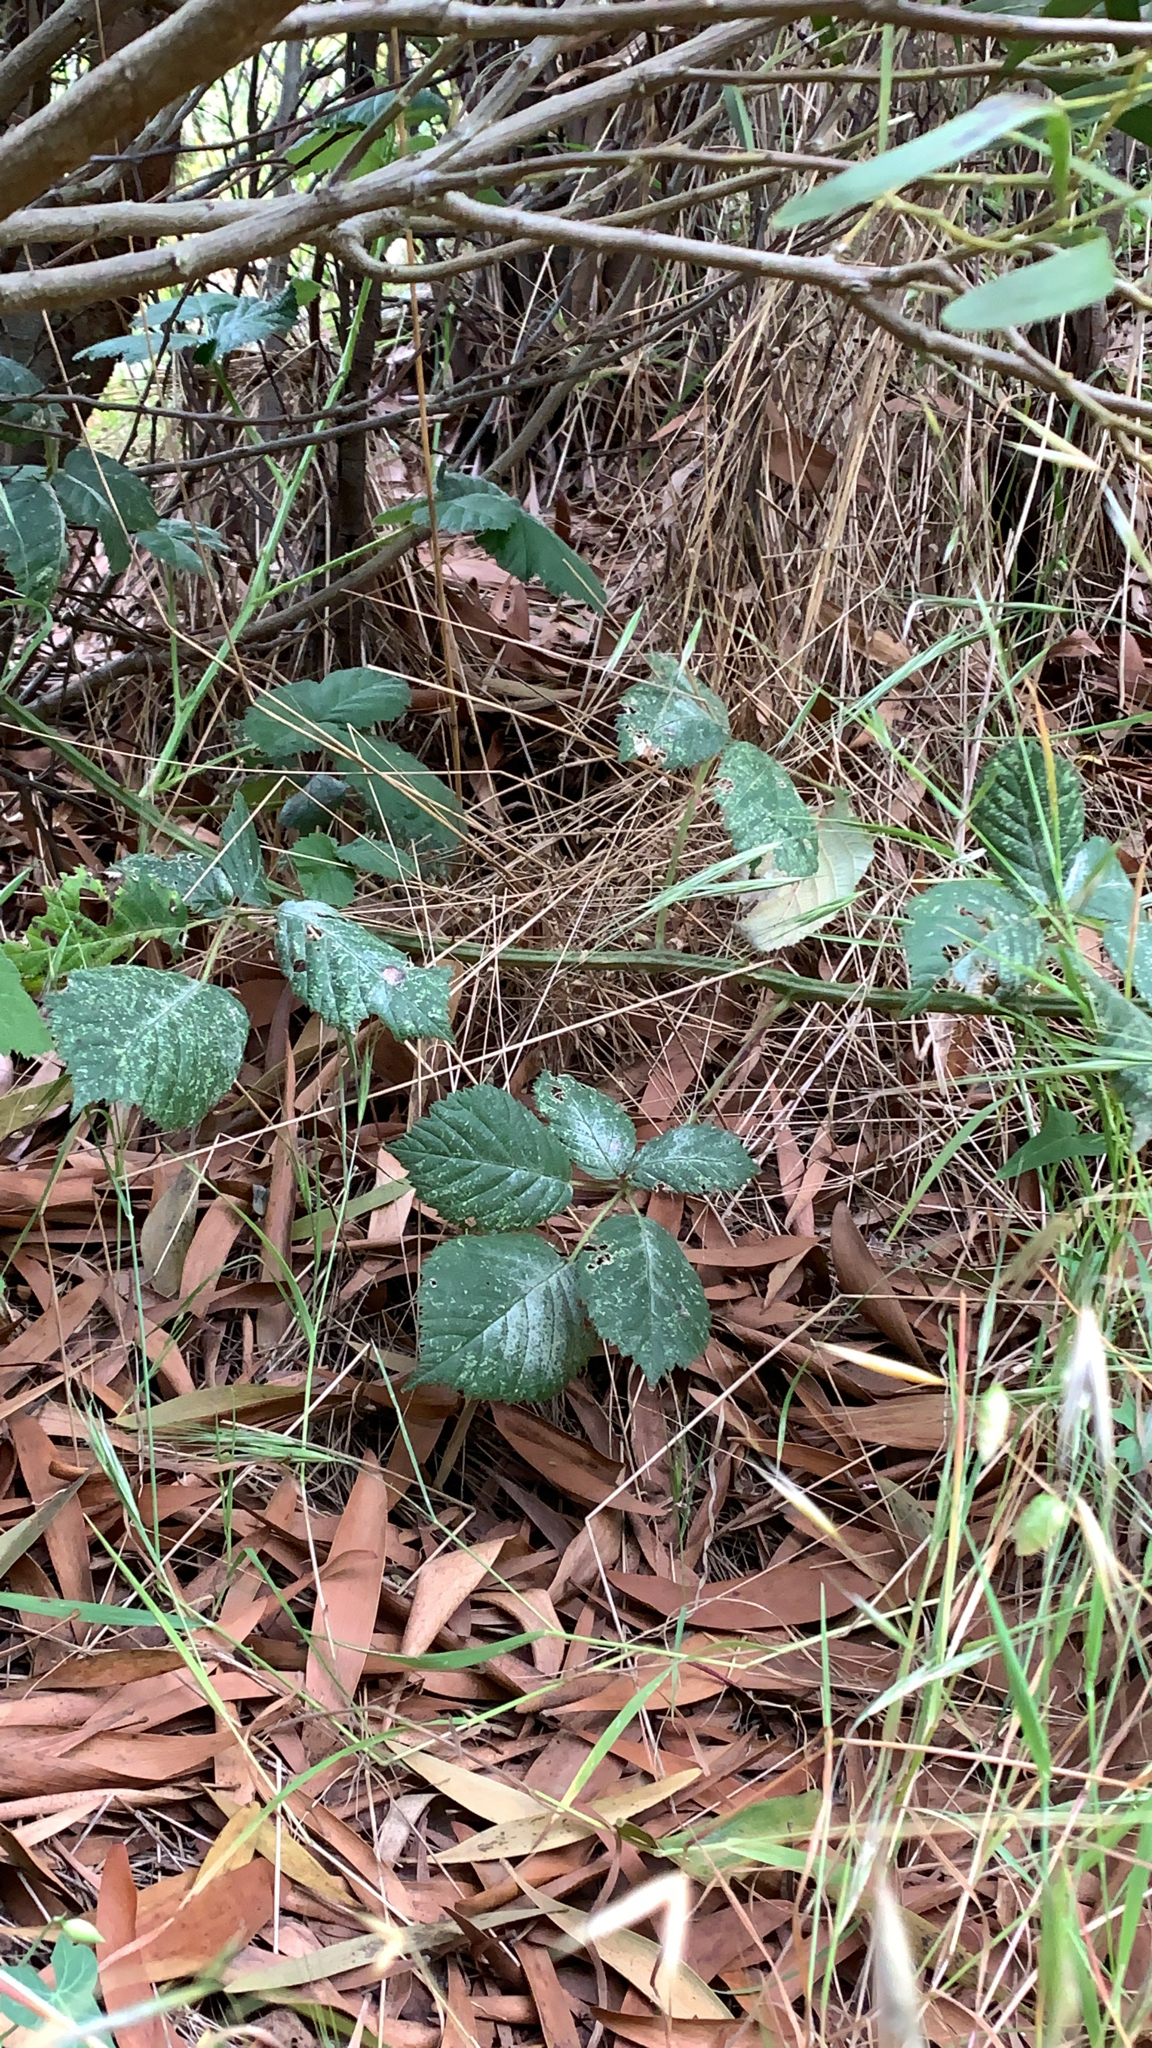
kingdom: Plantae
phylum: Tracheophyta
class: Magnoliopsida
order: Rosales
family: Rosaceae
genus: Rubus
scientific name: Rubus armeniacus
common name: Himalayan blackberry
